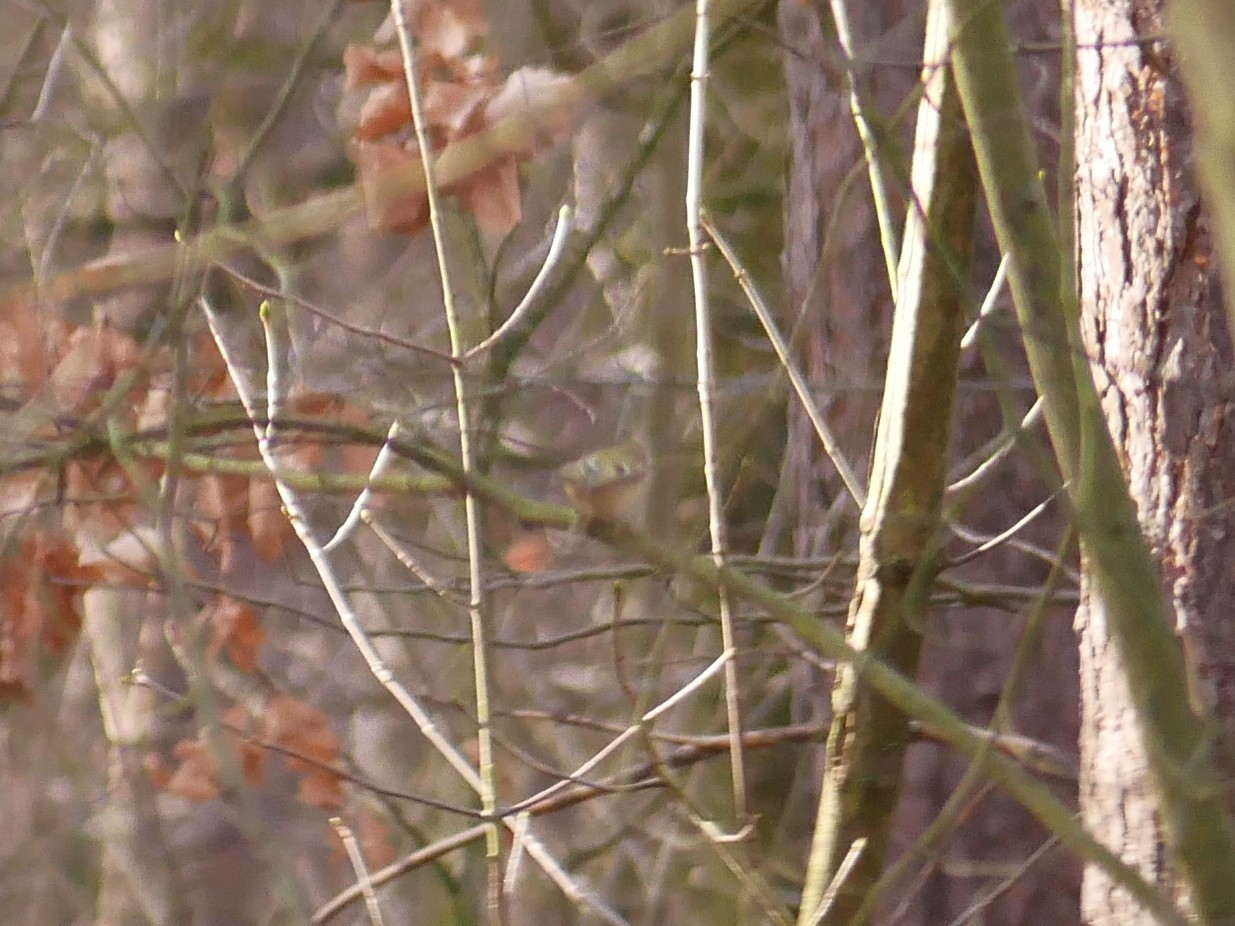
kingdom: Animalia
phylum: Chordata
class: Aves
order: Passeriformes
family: Regulidae
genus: Regulus
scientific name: Regulus regulus
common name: Goldcrest
